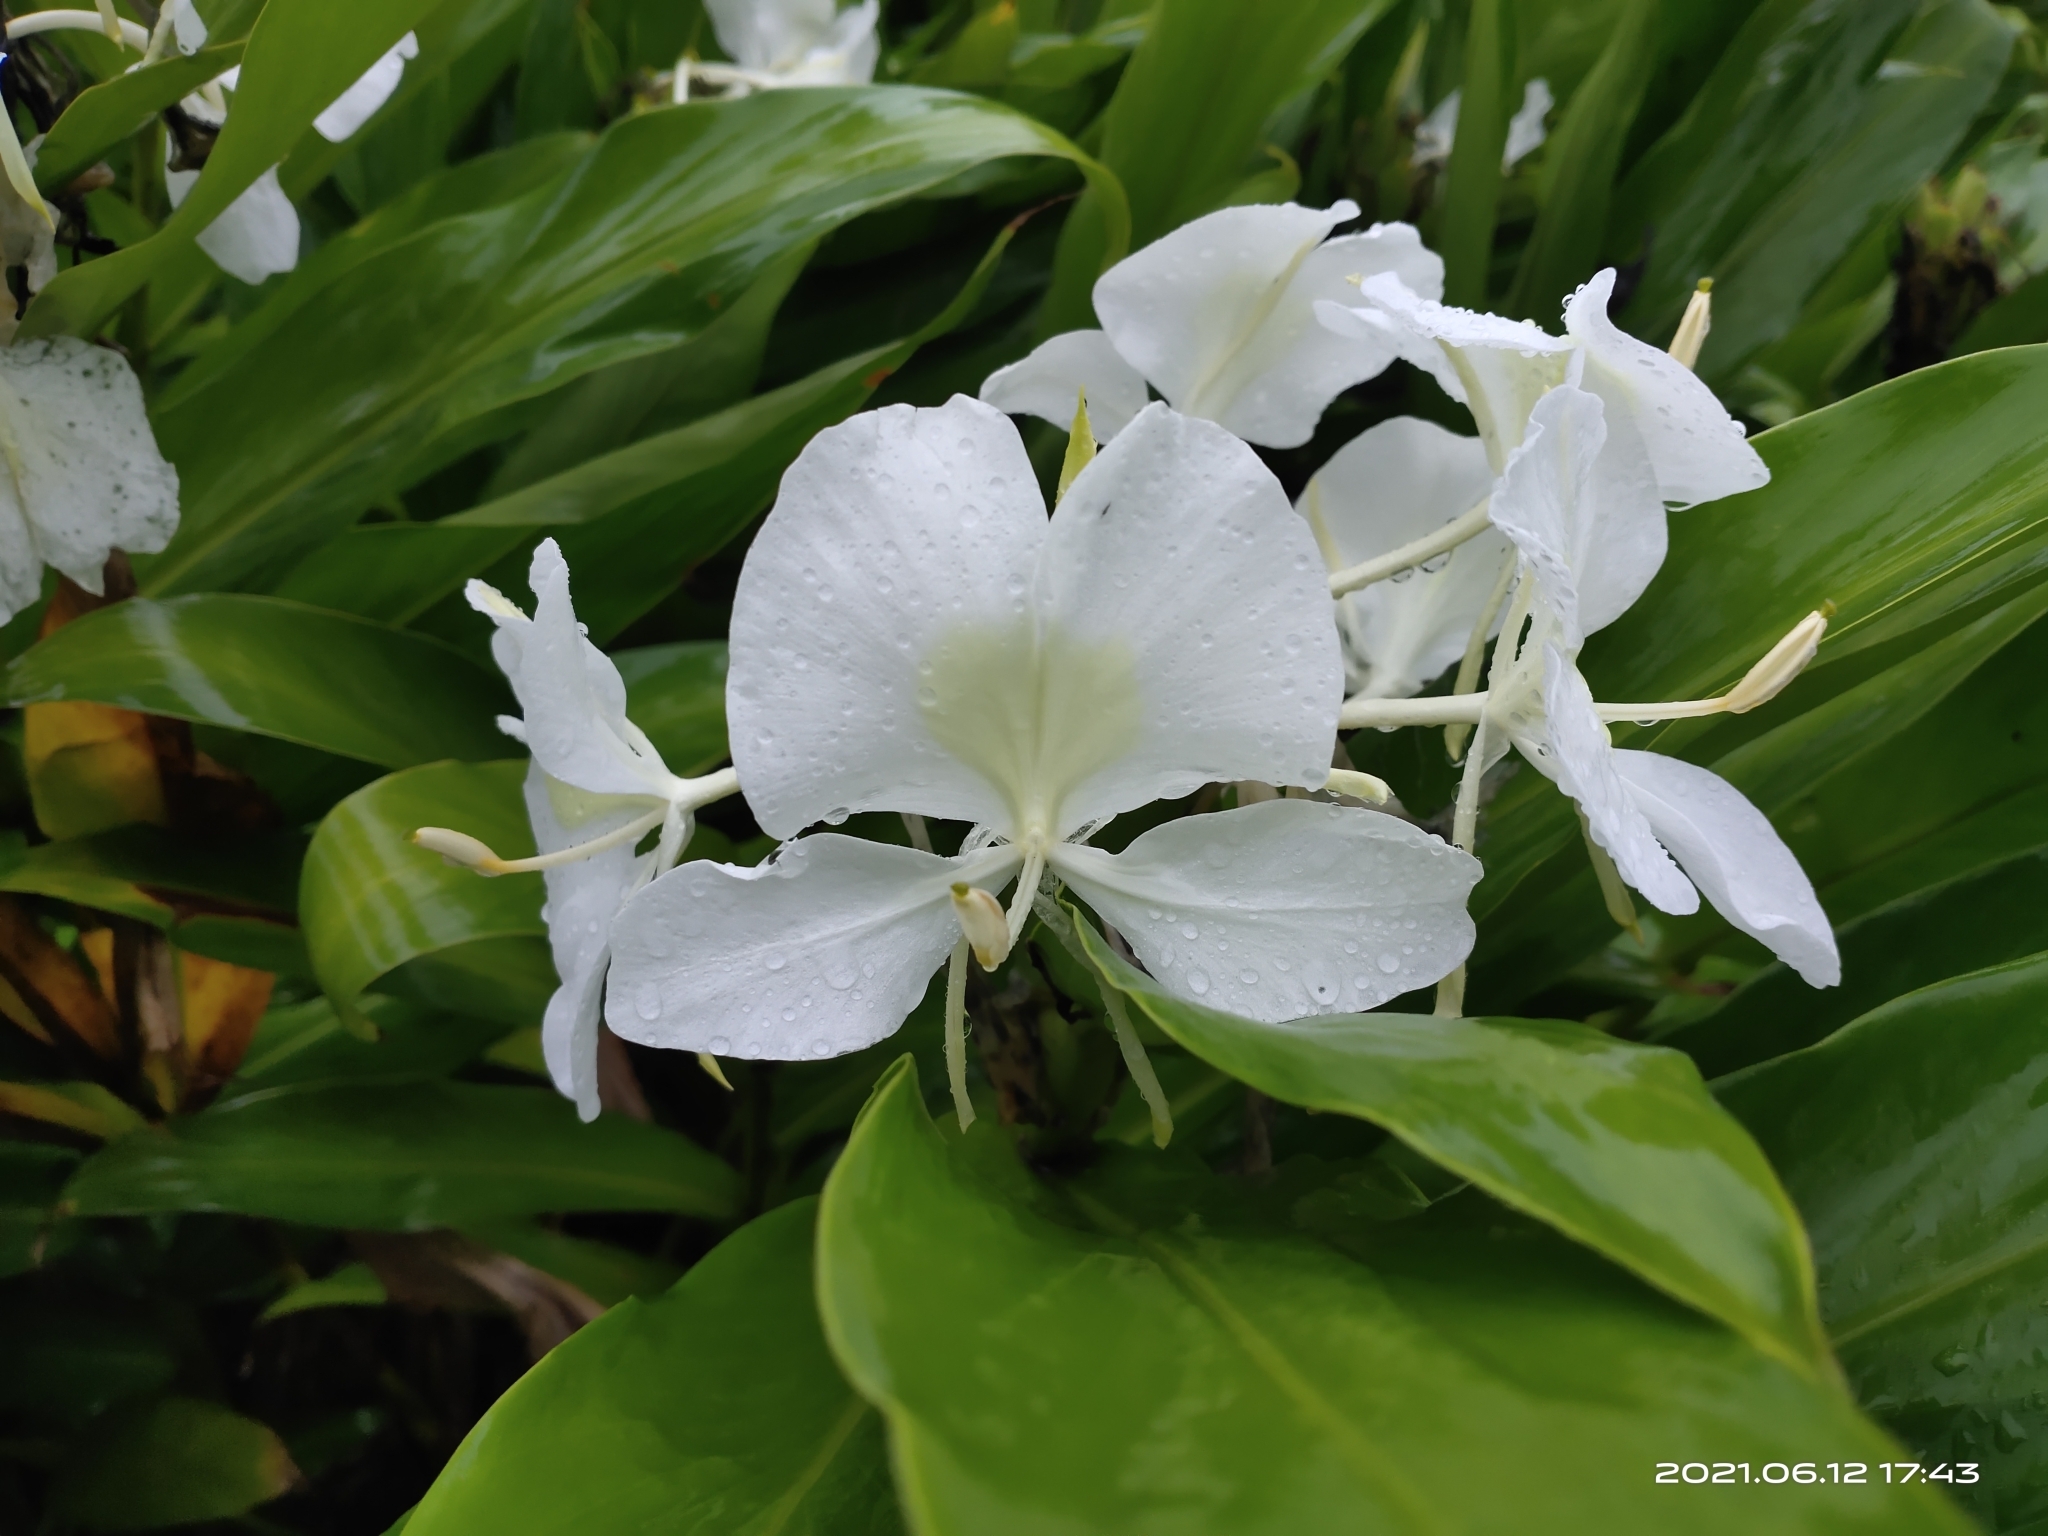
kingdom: Plantae
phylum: Tracheophyta
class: Liliopsida
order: Zingiberales
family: Zingiberaceae
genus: Hedychium
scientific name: Hedychium coronarium
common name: White garland-lily
